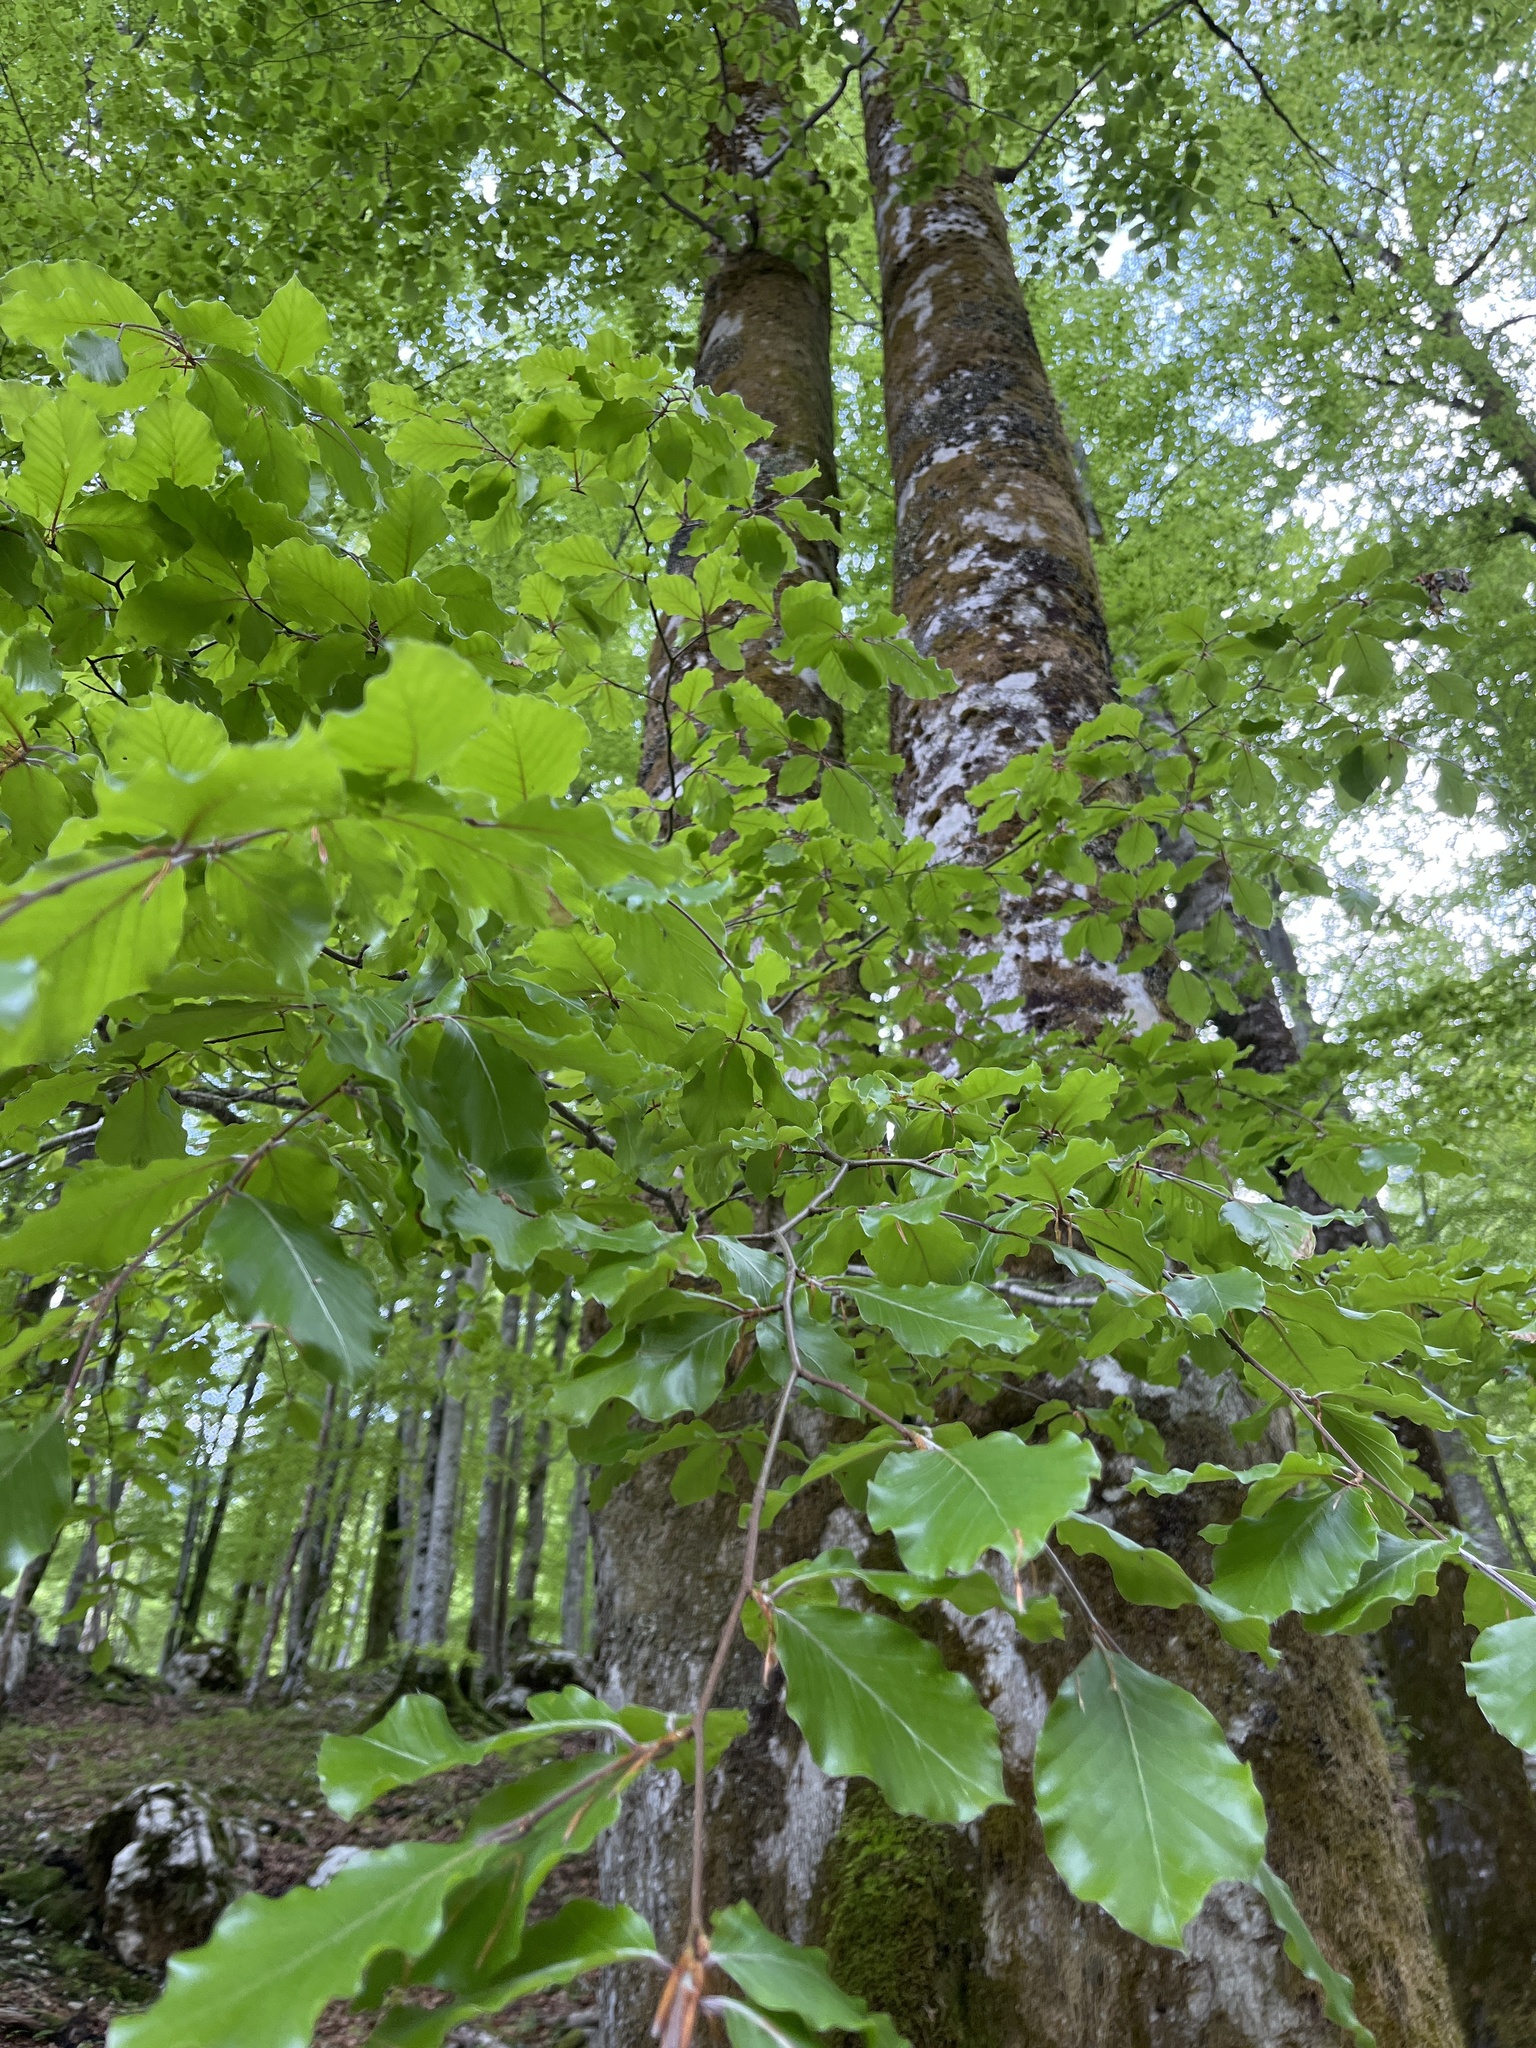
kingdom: Plantae
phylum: Tracheophyta
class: Magnoliopsida
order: Fagales
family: Fagaceae
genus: Fagus
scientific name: Fagus sylvatica
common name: Beech
